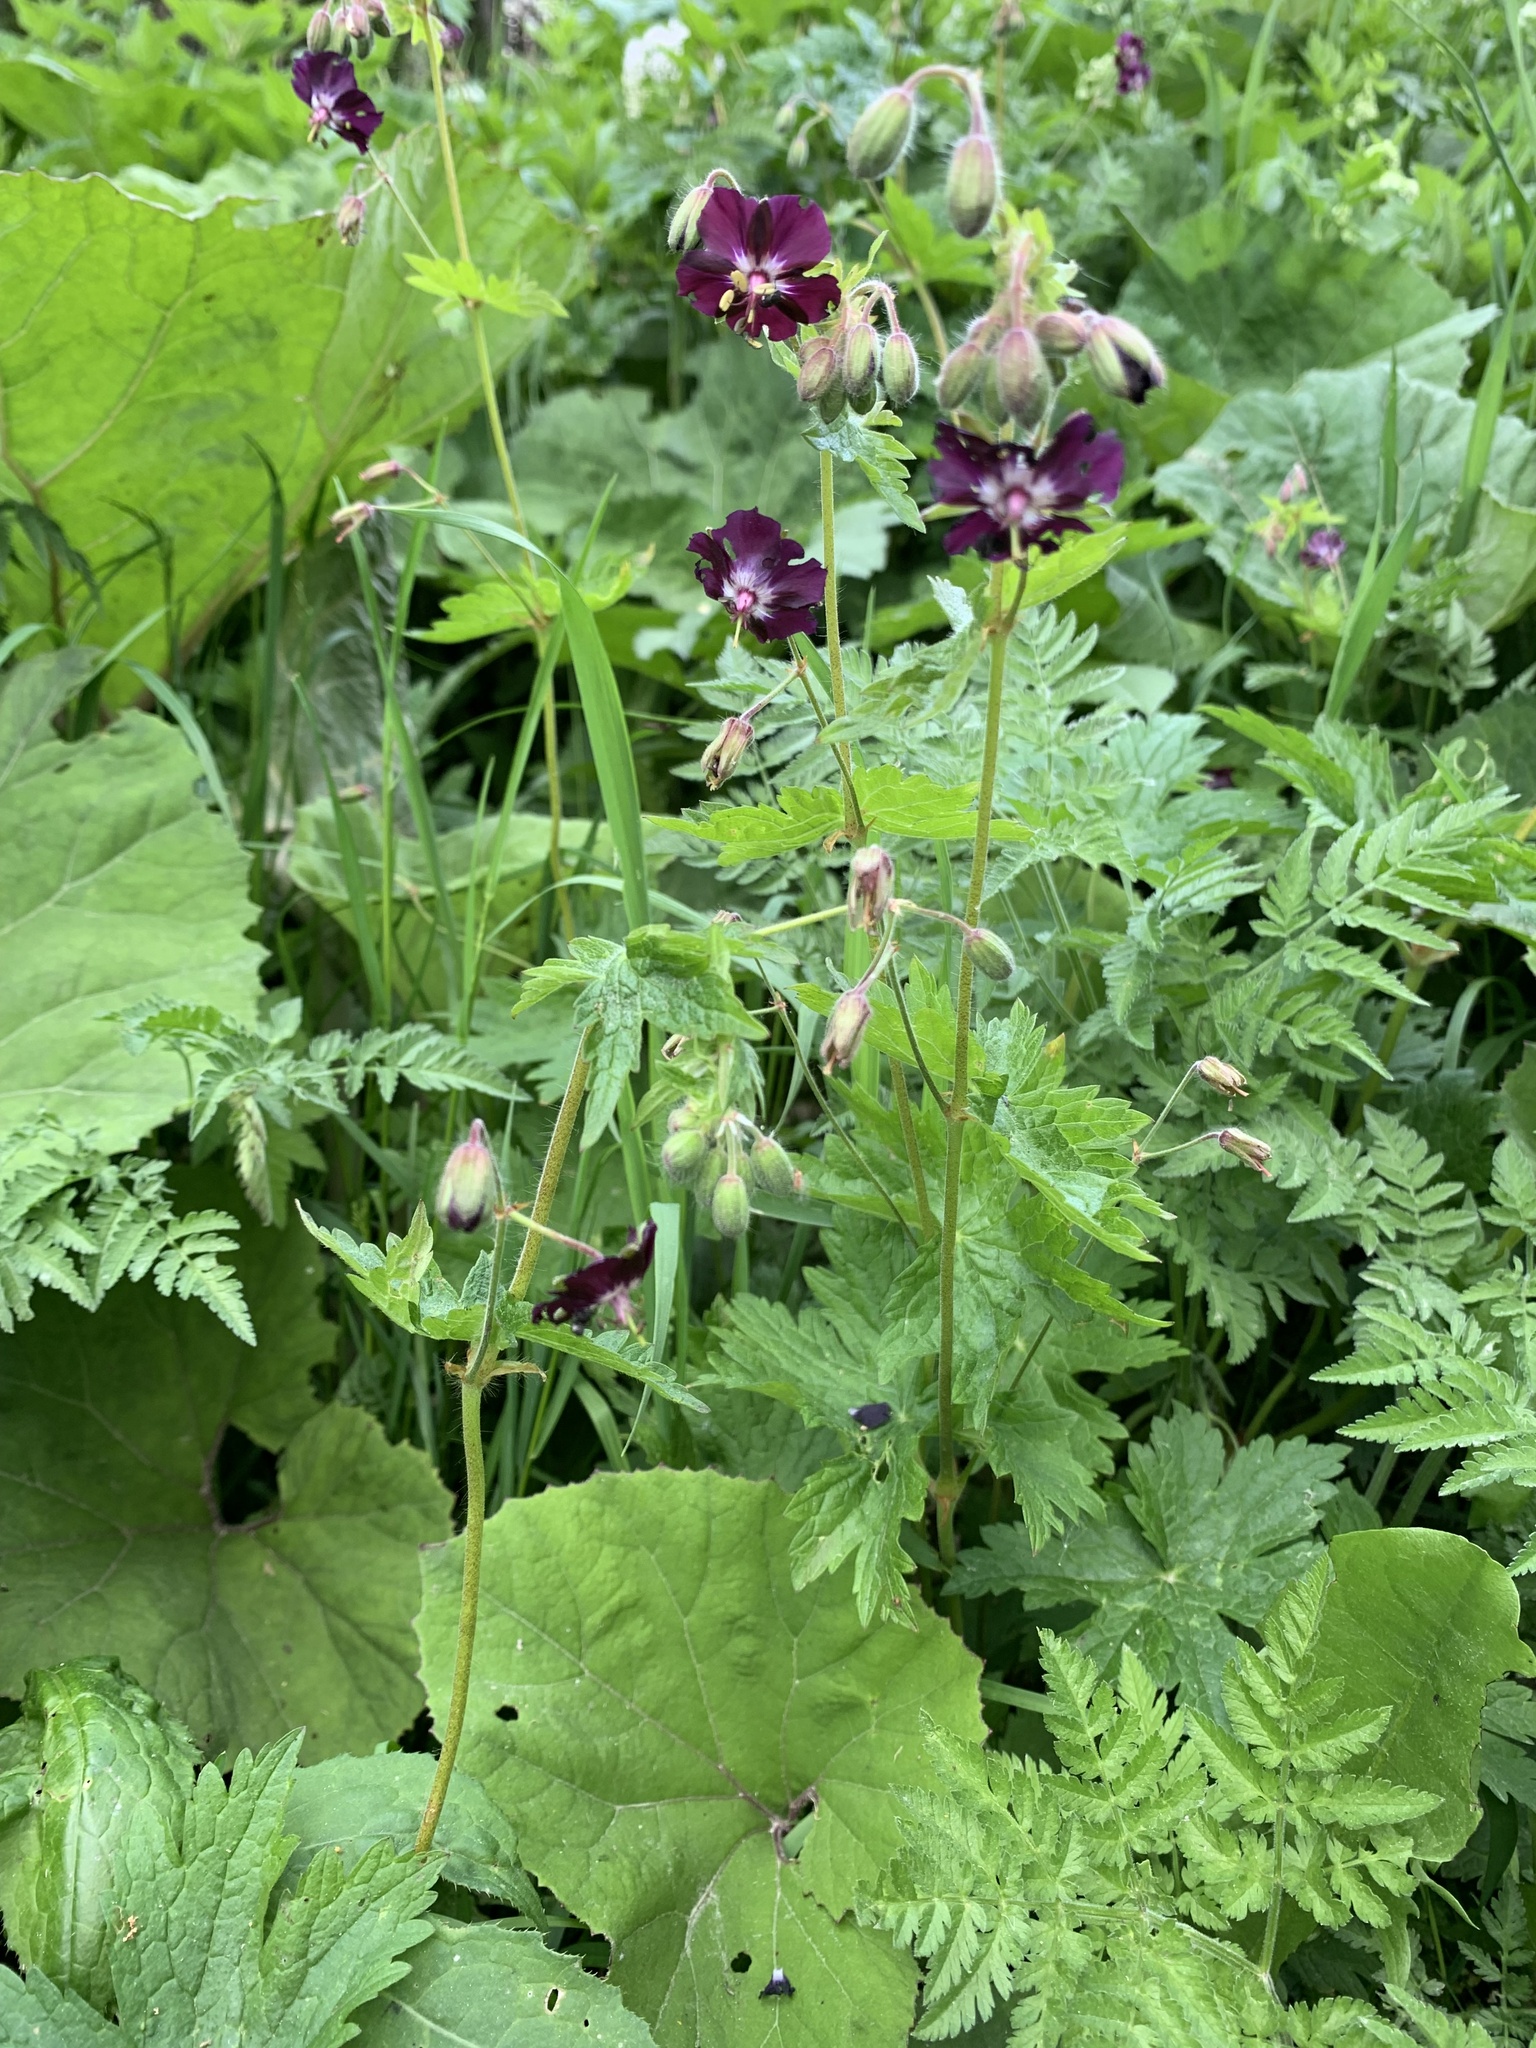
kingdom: Plantae
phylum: Tracheophyta
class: Magnoliopsida
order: Geraniales
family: Geraniaceae
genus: Geranium
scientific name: Geranium phaeum
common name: Dusky crane's-bill
